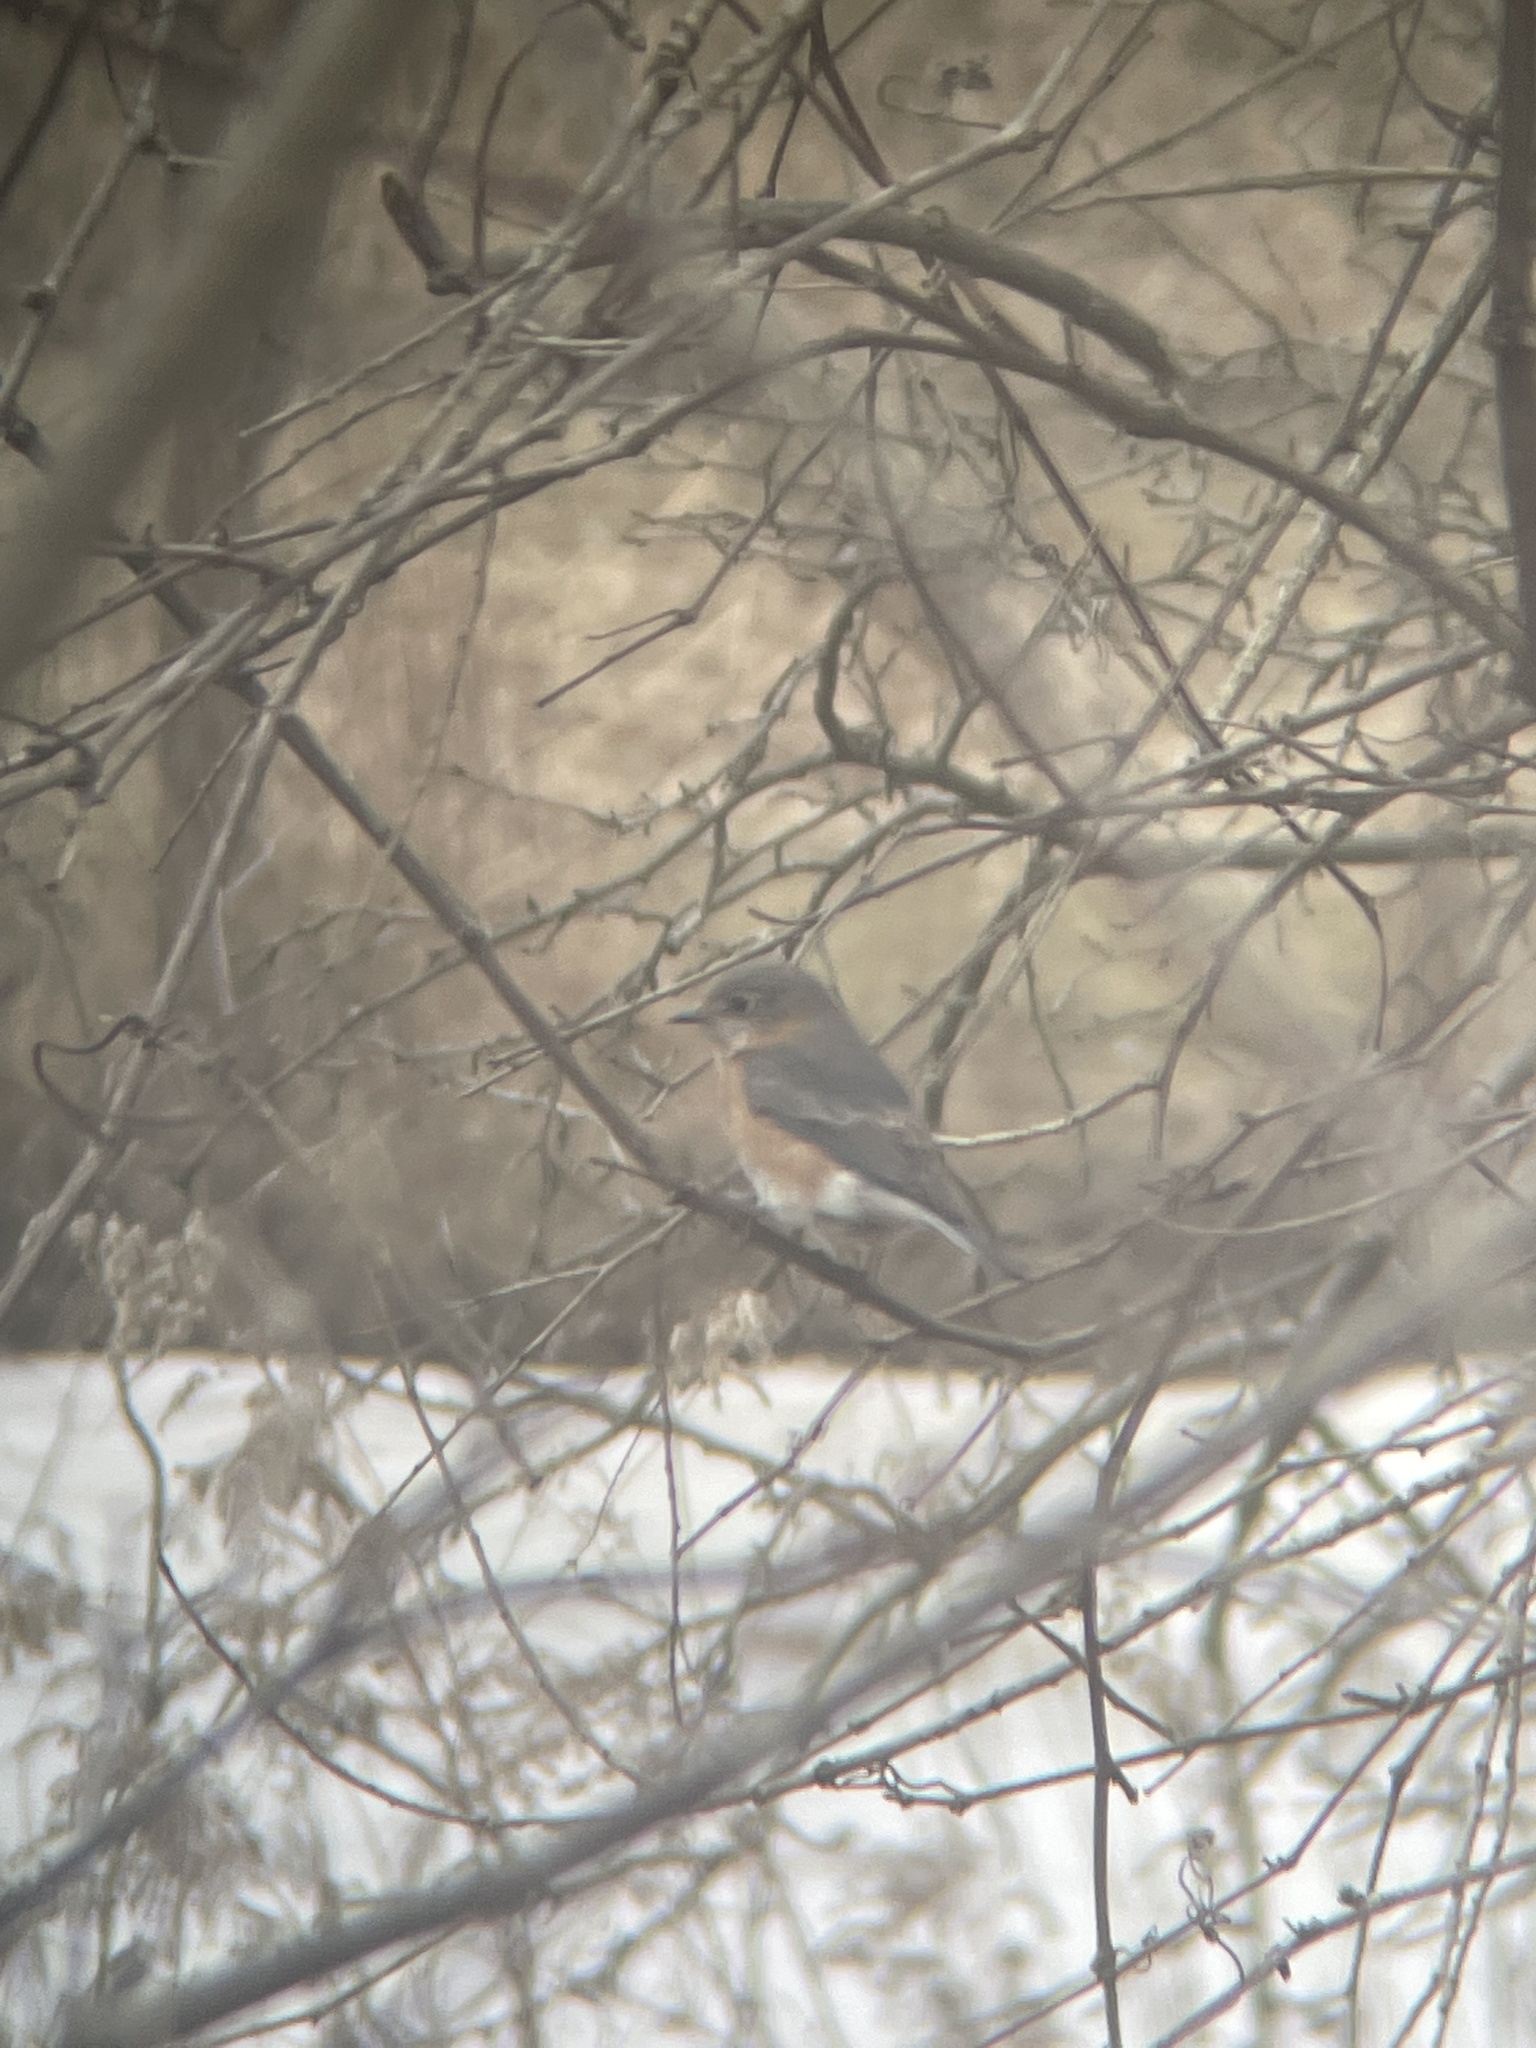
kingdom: Animalia
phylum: Chordata
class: Aves
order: Passeriformes
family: Turdidae
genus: Sialia
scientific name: Sialia sialis
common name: Eastern bluebird
